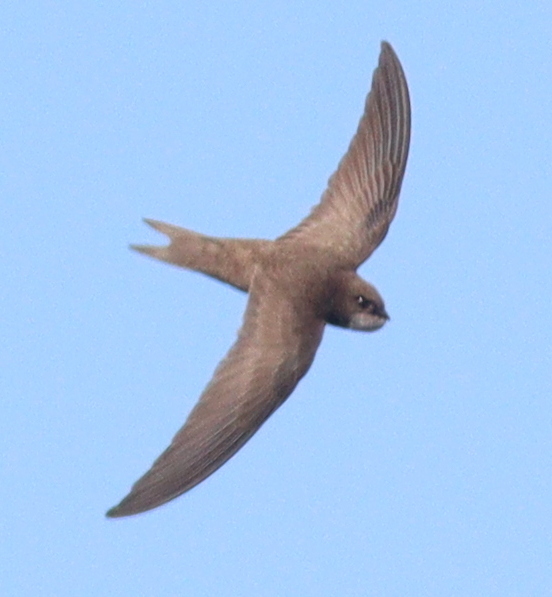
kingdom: Animalia
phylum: Chordata
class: Aves
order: Apodiformes
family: Apodidae
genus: Apus
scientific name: Apus pallidus
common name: Pallid swift
